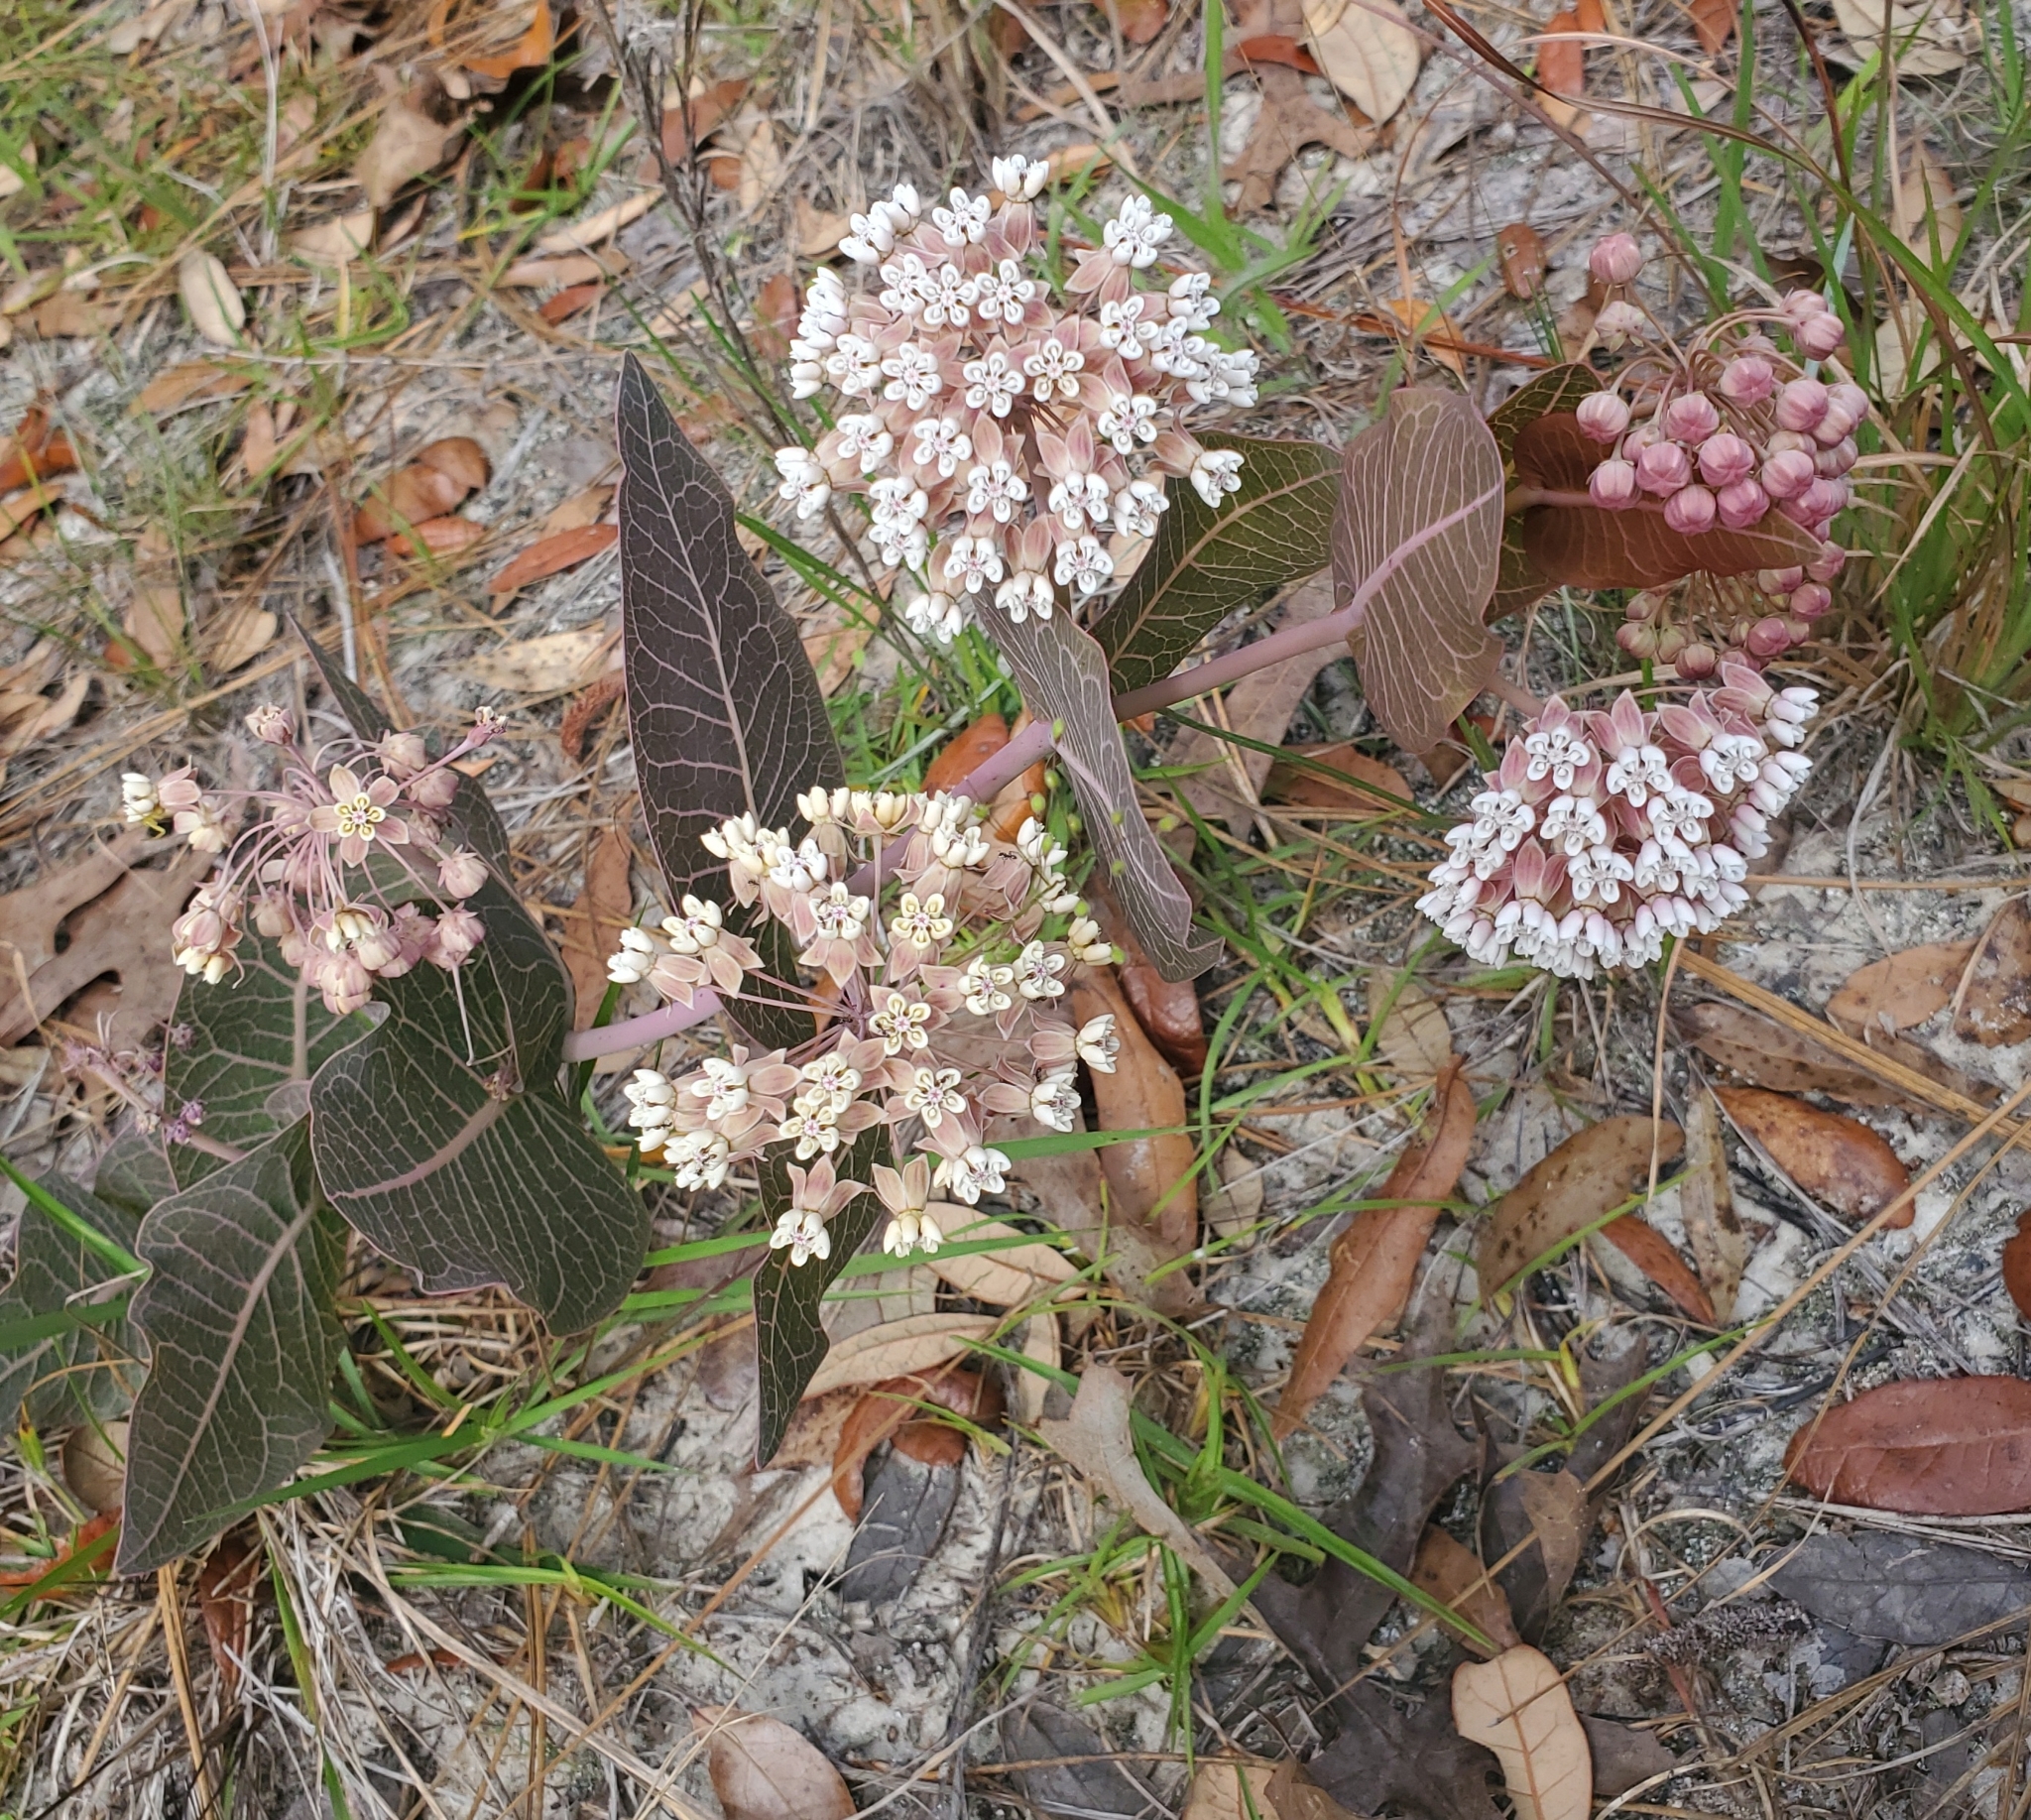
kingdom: Plantae
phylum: Tracheophyta
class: Magnoliopsida
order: Gentianales
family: Apocynaceae
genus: Asclepias
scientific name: Asclepias humistrata
